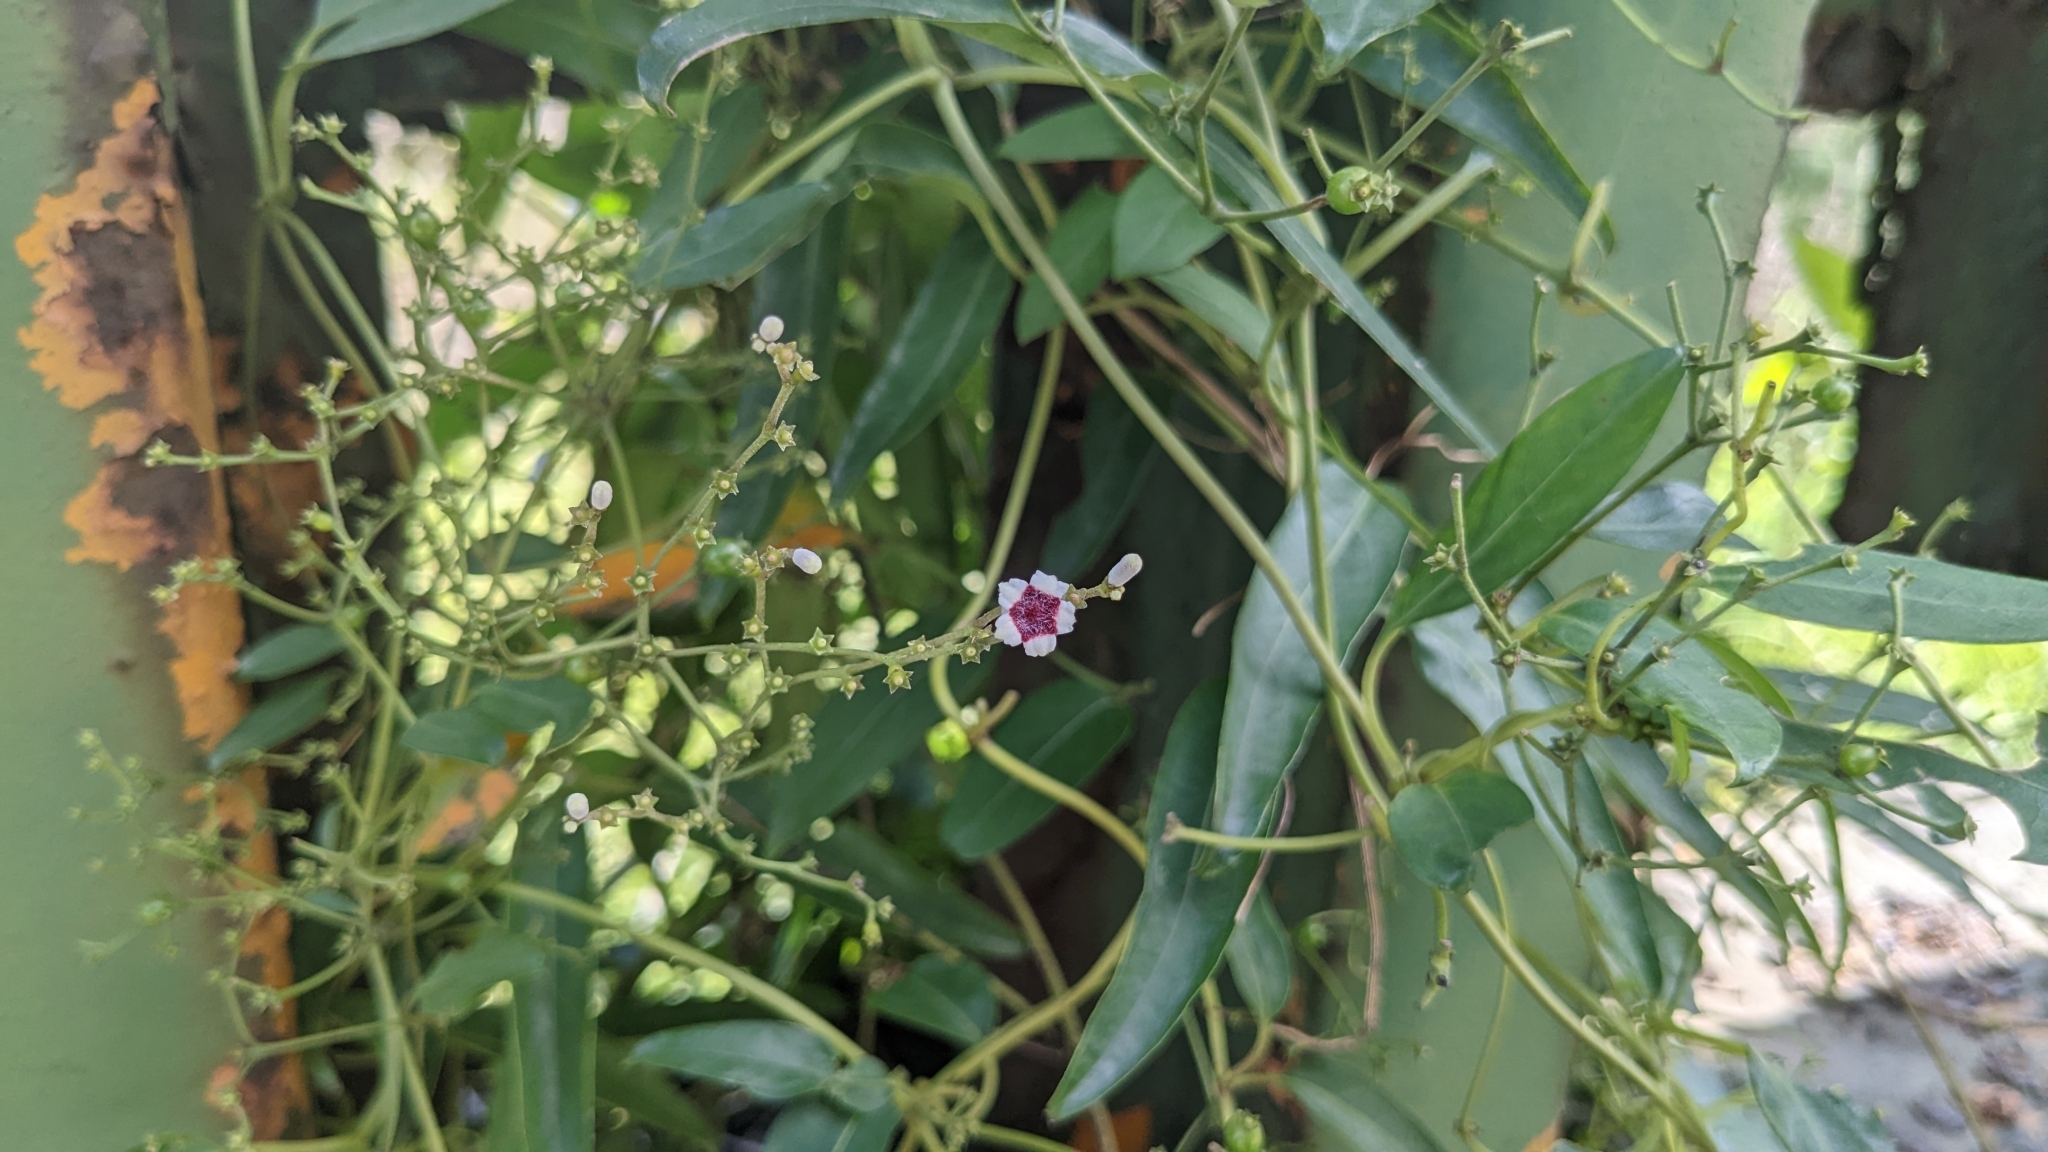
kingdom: Plantae
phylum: Tracheophyta
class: Magnoliopsida
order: Gentianales
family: Rubiaceae
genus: Paederia
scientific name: Paederia foetida
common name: Stinkvine
